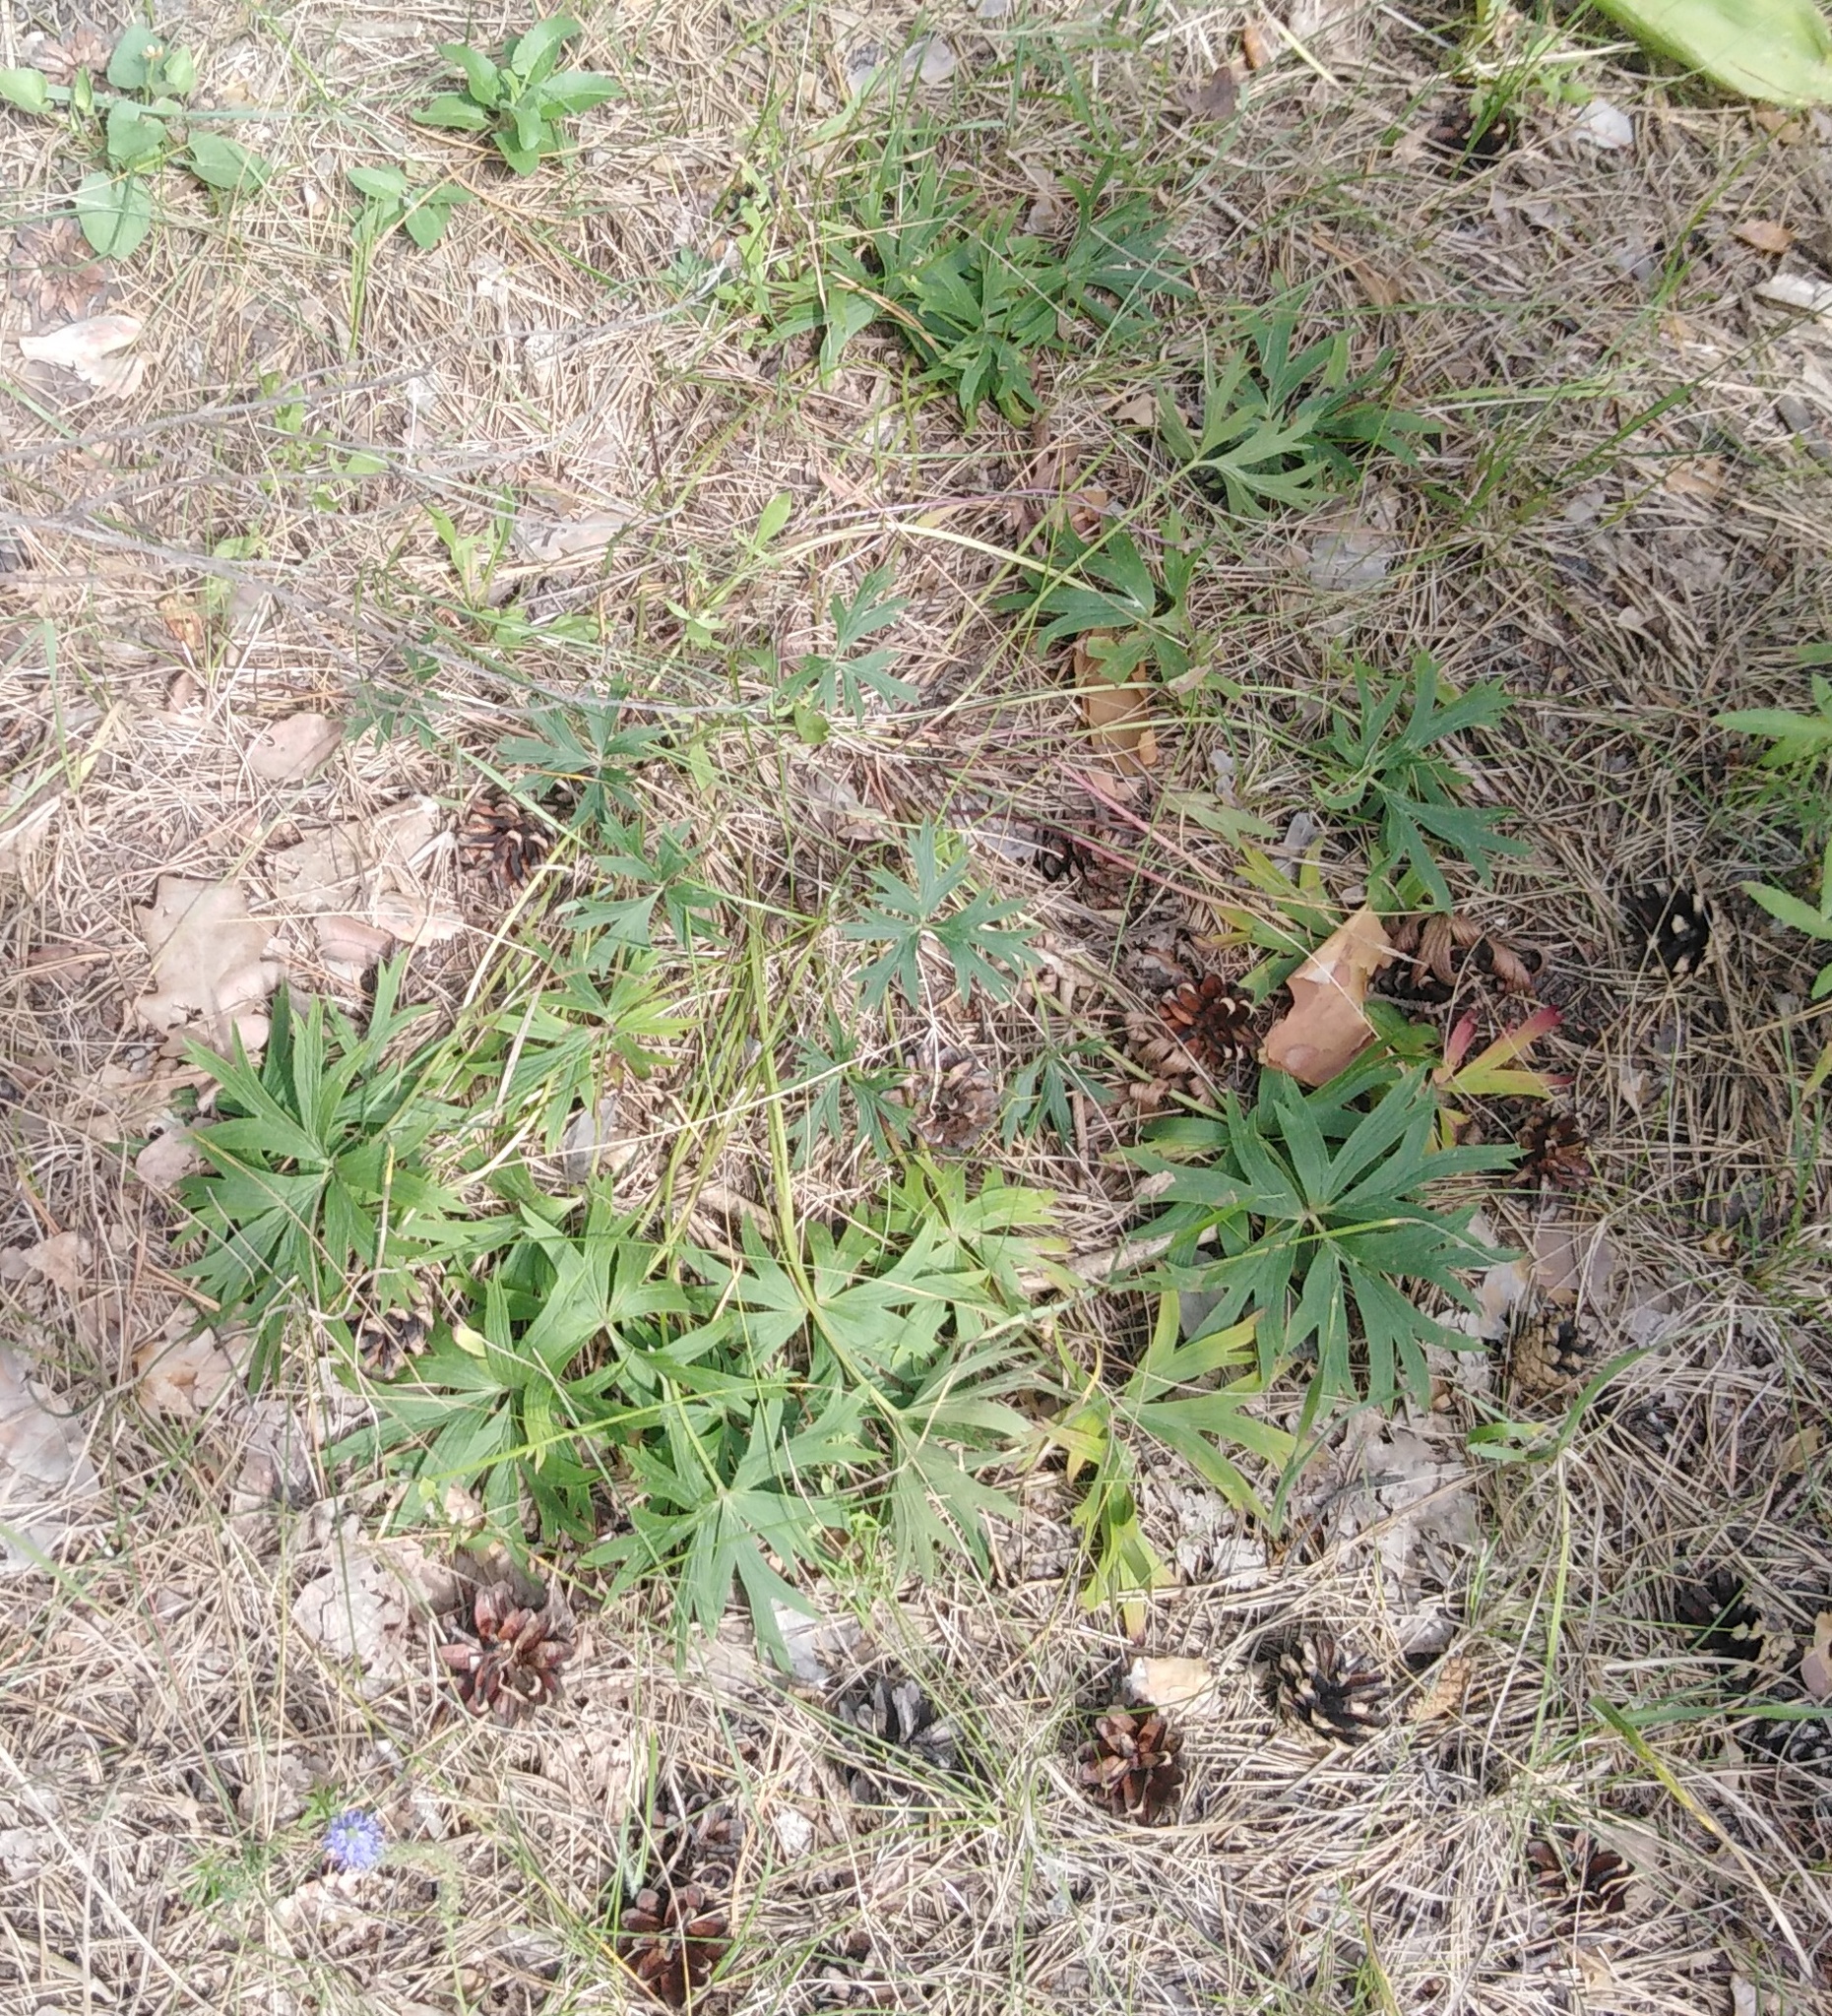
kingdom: Plantae
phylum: Tracheophyta
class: Magnoliopsida
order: Ranunculales
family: Ranunculaceae
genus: Pulsatilla
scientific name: Pulsatilla patens
